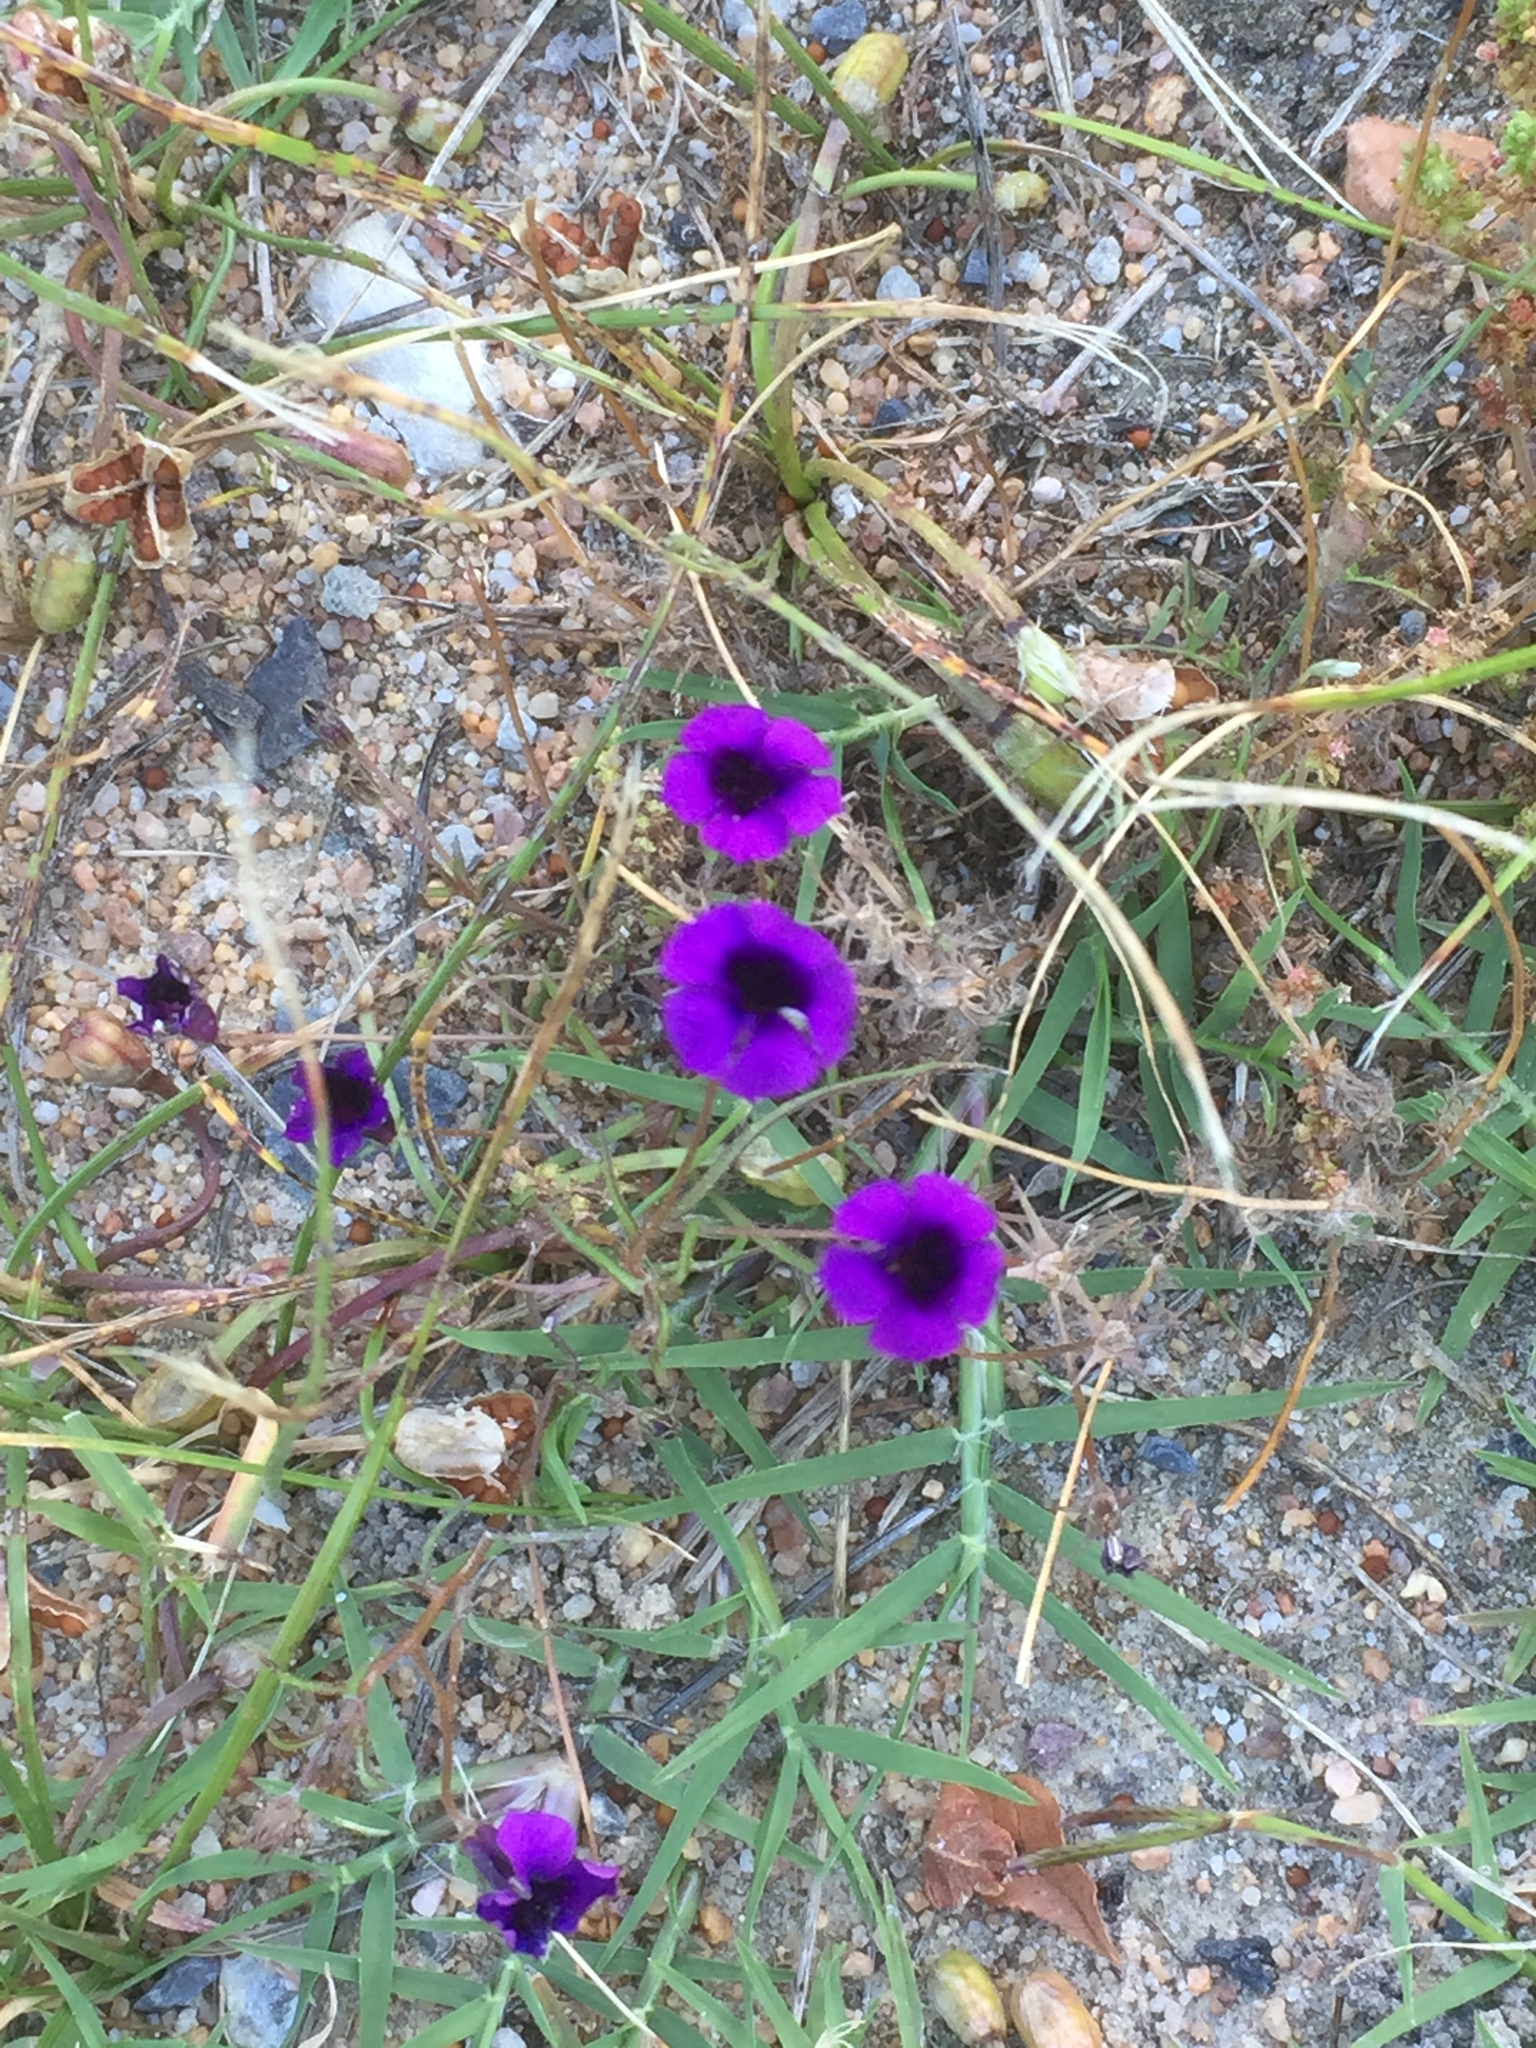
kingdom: Plantae
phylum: Tracheophyta
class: Magnoliopsida
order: Asterales
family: Campanulaceae
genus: Monopsis
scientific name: Monopsis debilis
